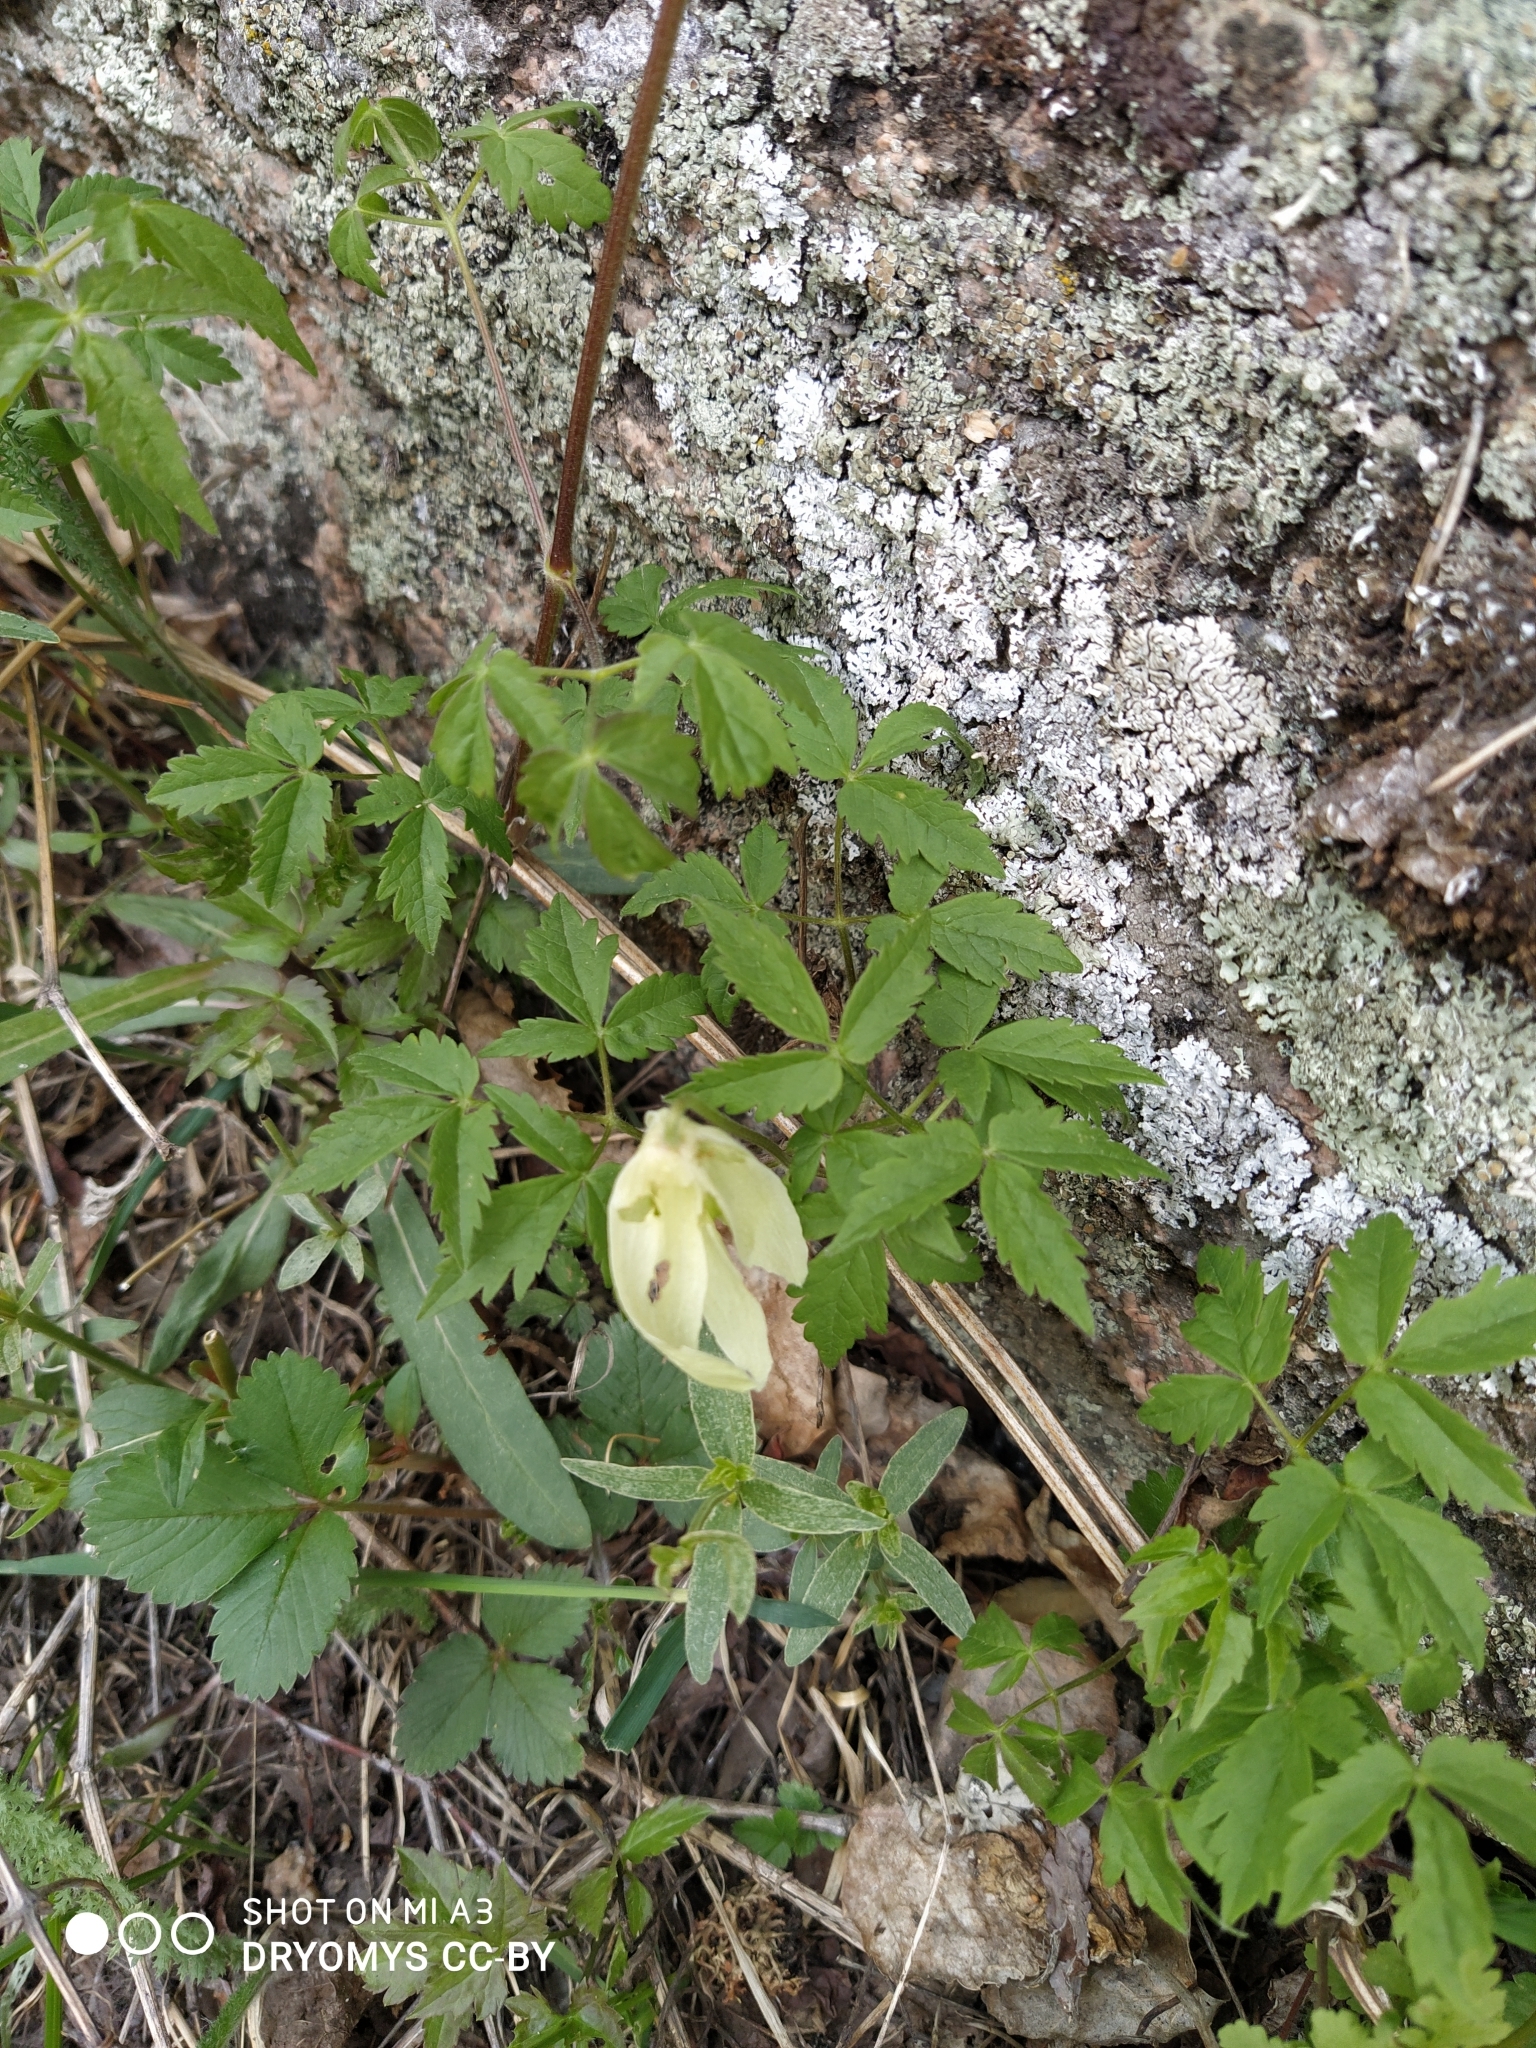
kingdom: Plantae
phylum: Tracheophyta
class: Magnoliopsida
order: Ranunculales
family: Ranunculaceae
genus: Clematis
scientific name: Clematis sibirica
